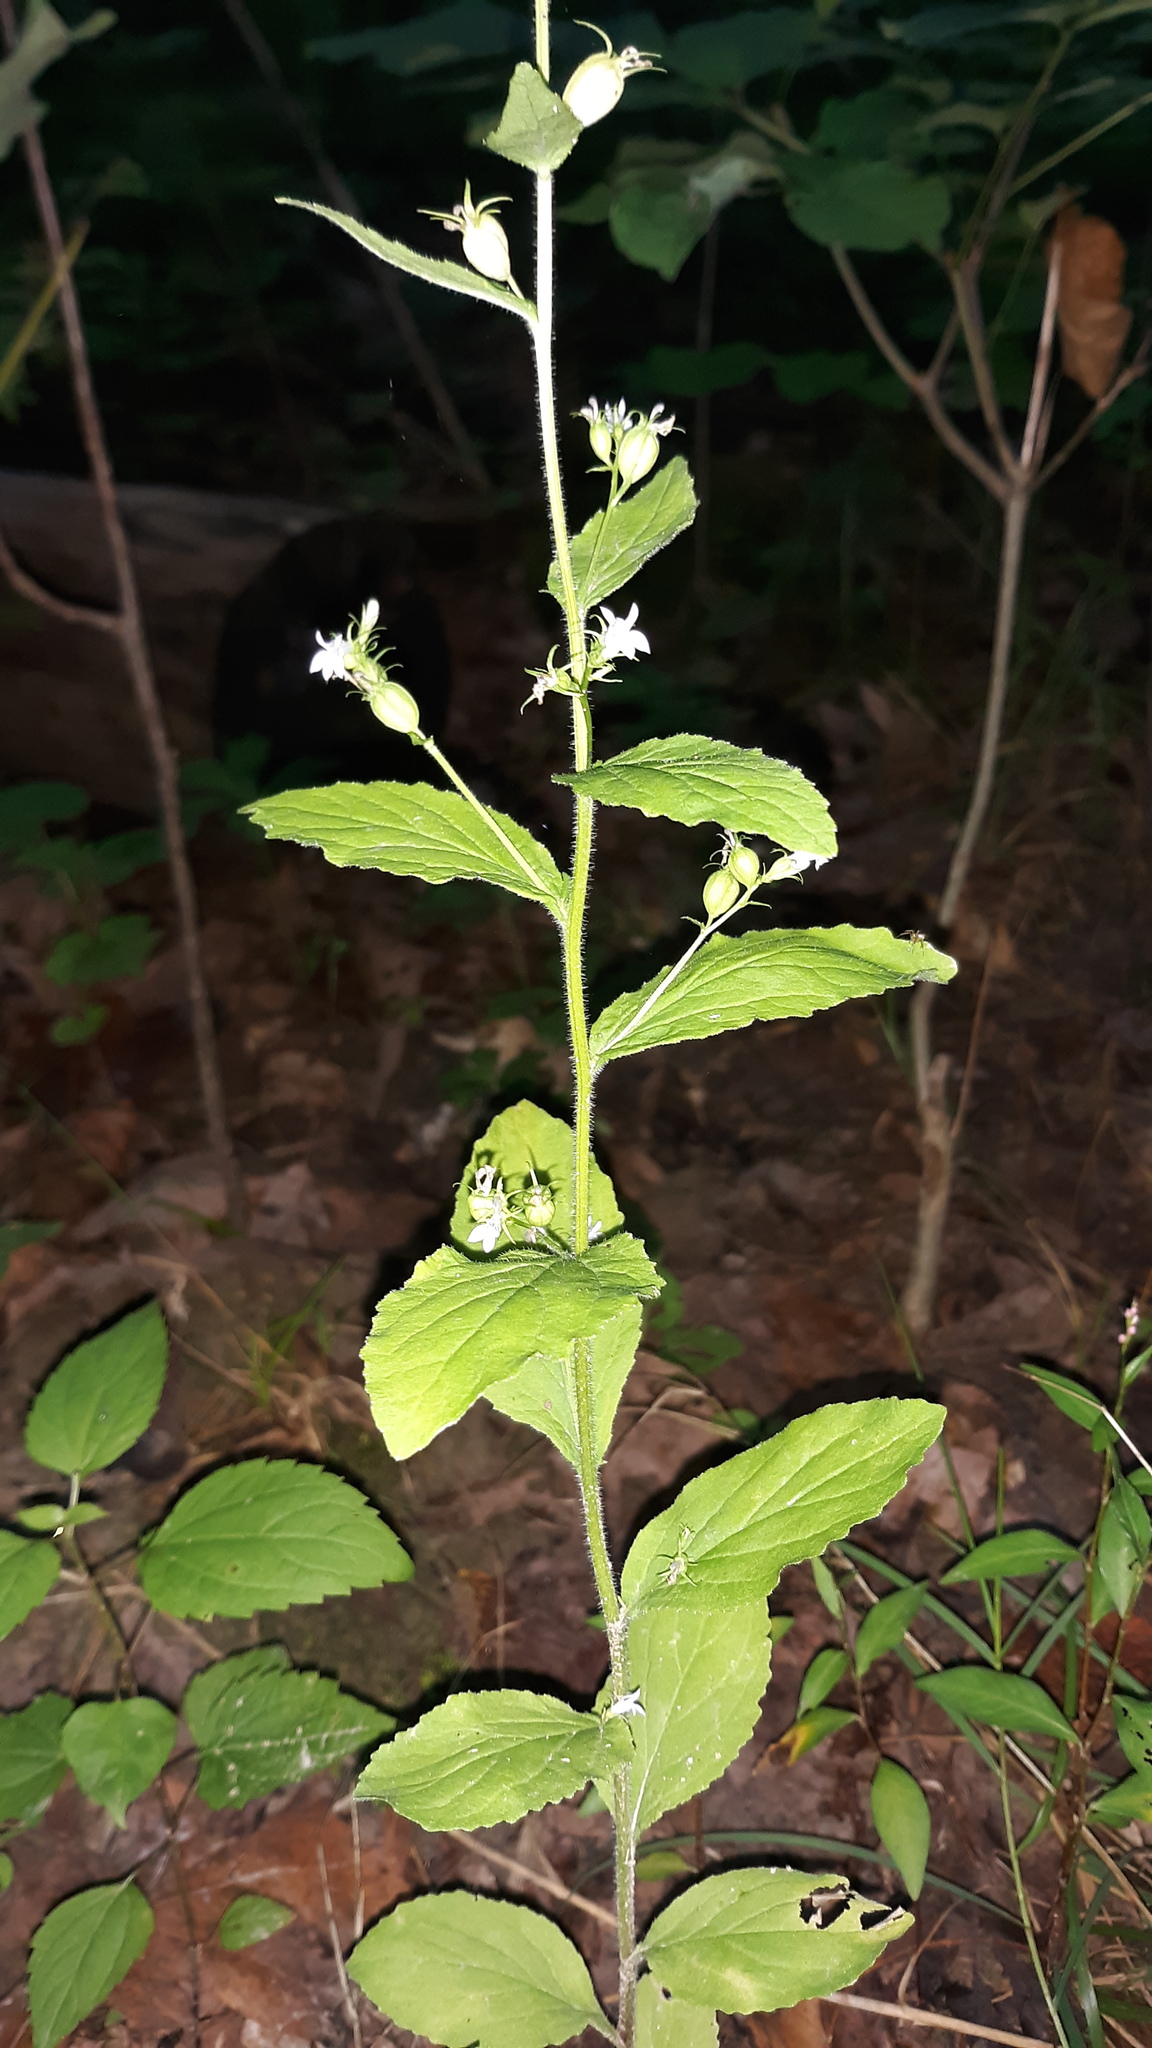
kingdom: Plantae
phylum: Tracheophyta
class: Magnoliopsida
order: Asterales
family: Campanulaceae
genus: Lobelia
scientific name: Lobelia inflata
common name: Indian tobacco
